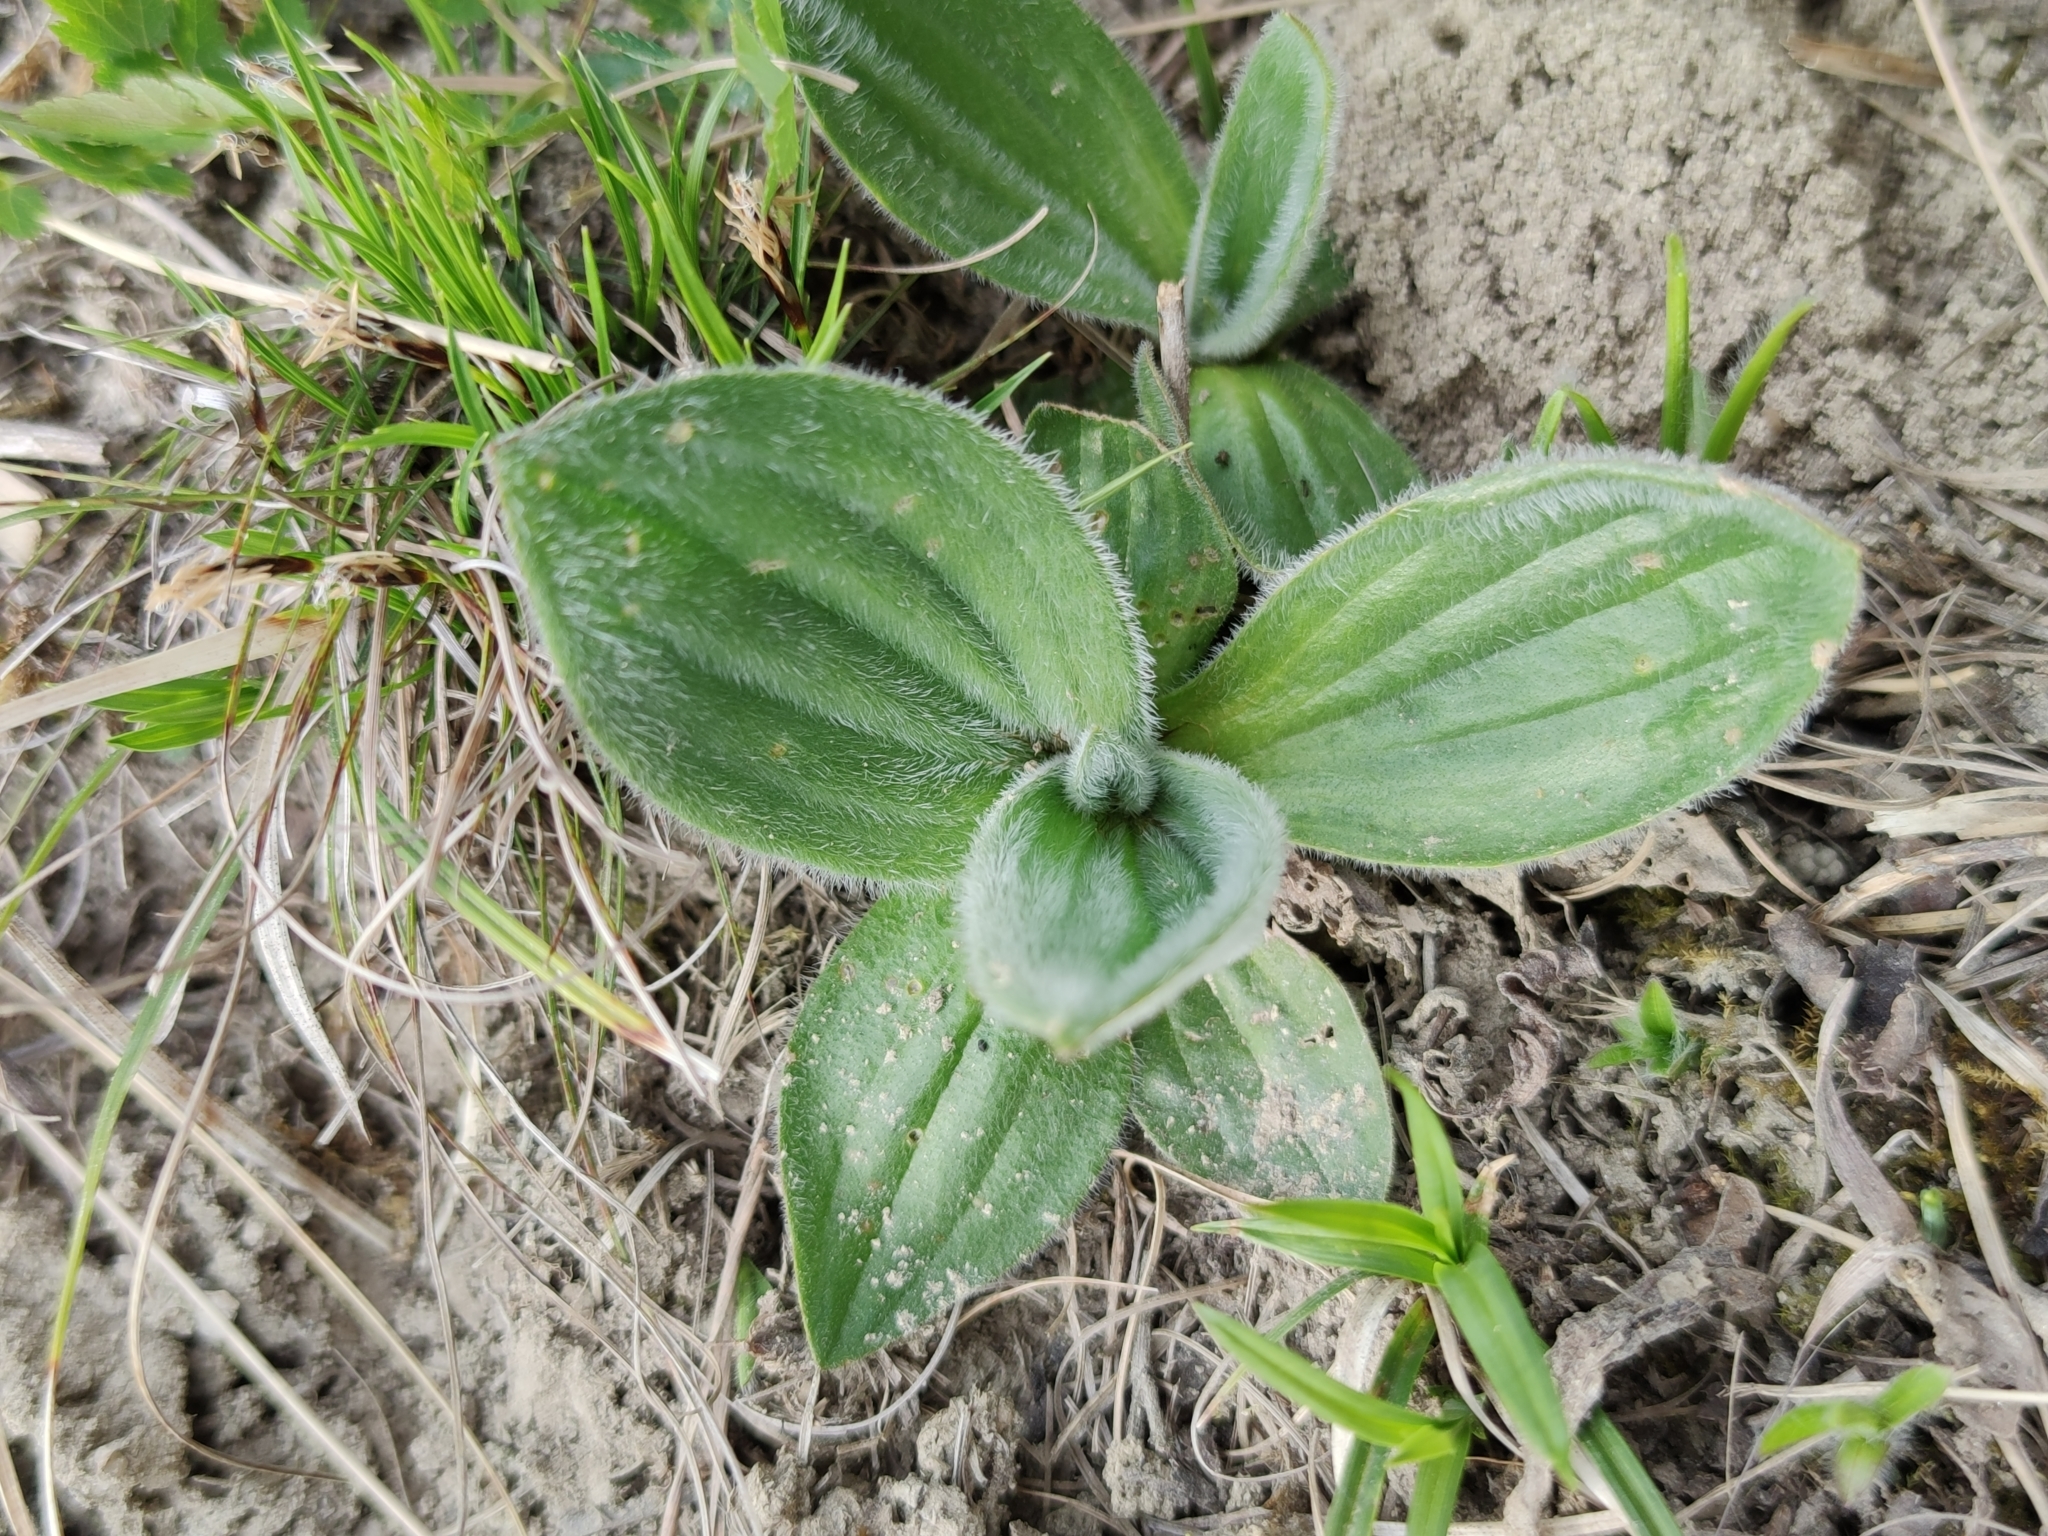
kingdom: Plantae
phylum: Tracheophyta
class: Magnoliopsida
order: Lamiales
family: Plantaginaceae
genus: Plantago
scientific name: Plantago media
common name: Hoary plantain
